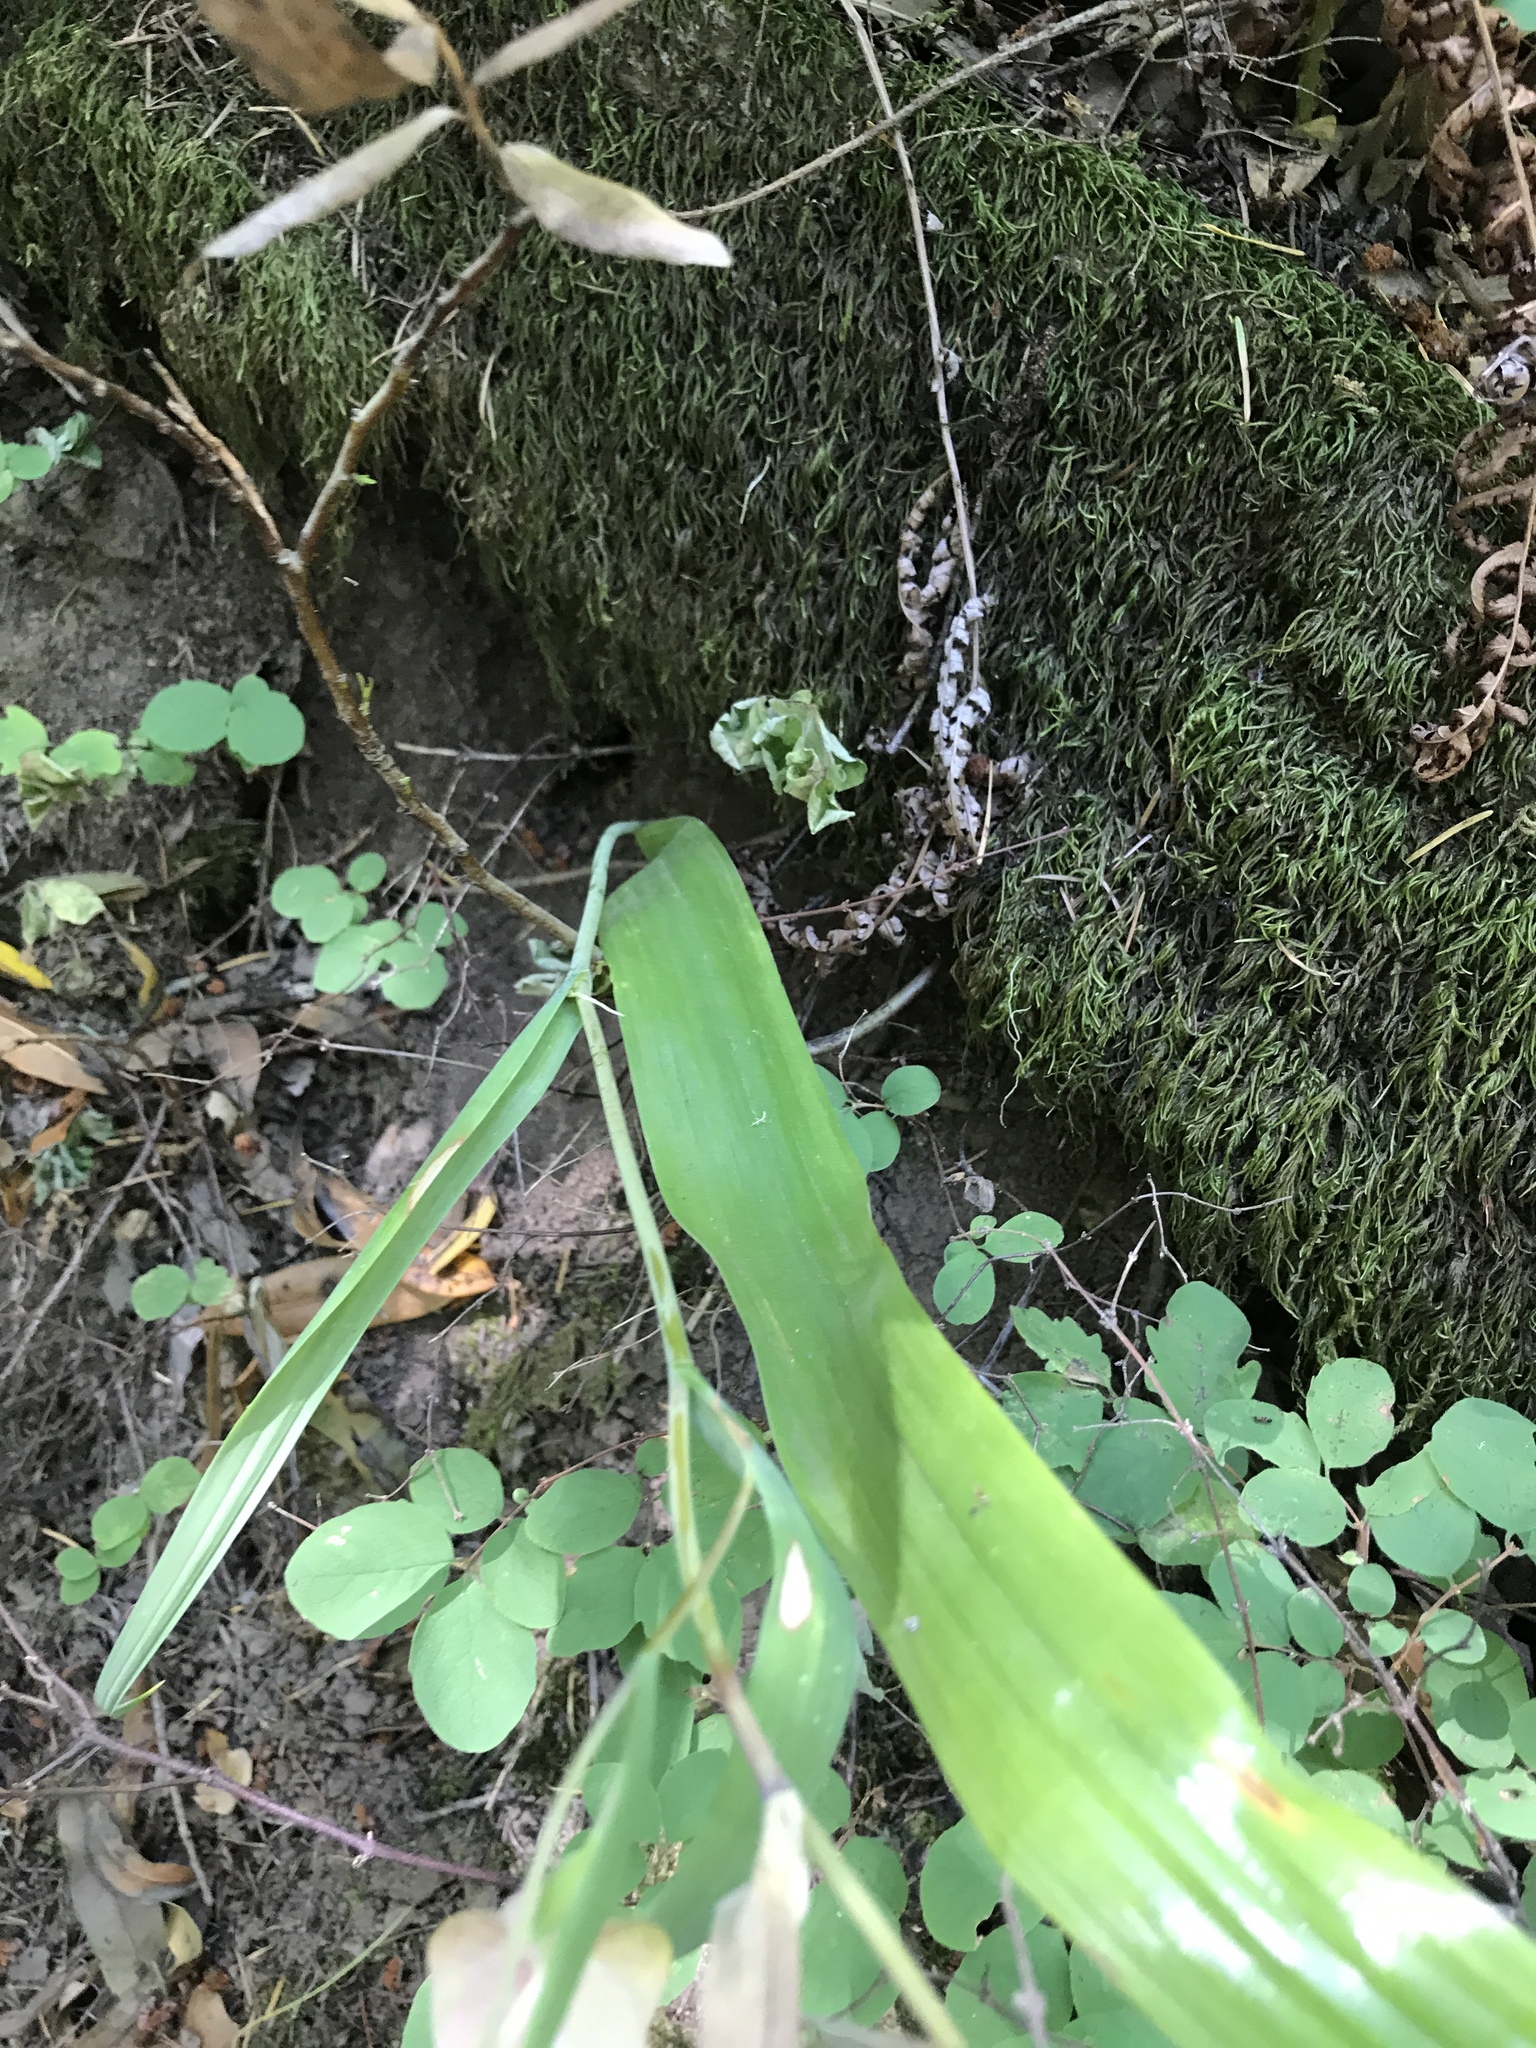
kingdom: Plantae
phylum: Tracheophyta
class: Liliopsida
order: Liliales
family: Liliaceae
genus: Calochortus
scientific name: Calochortus albus
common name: Fairy-lantern
